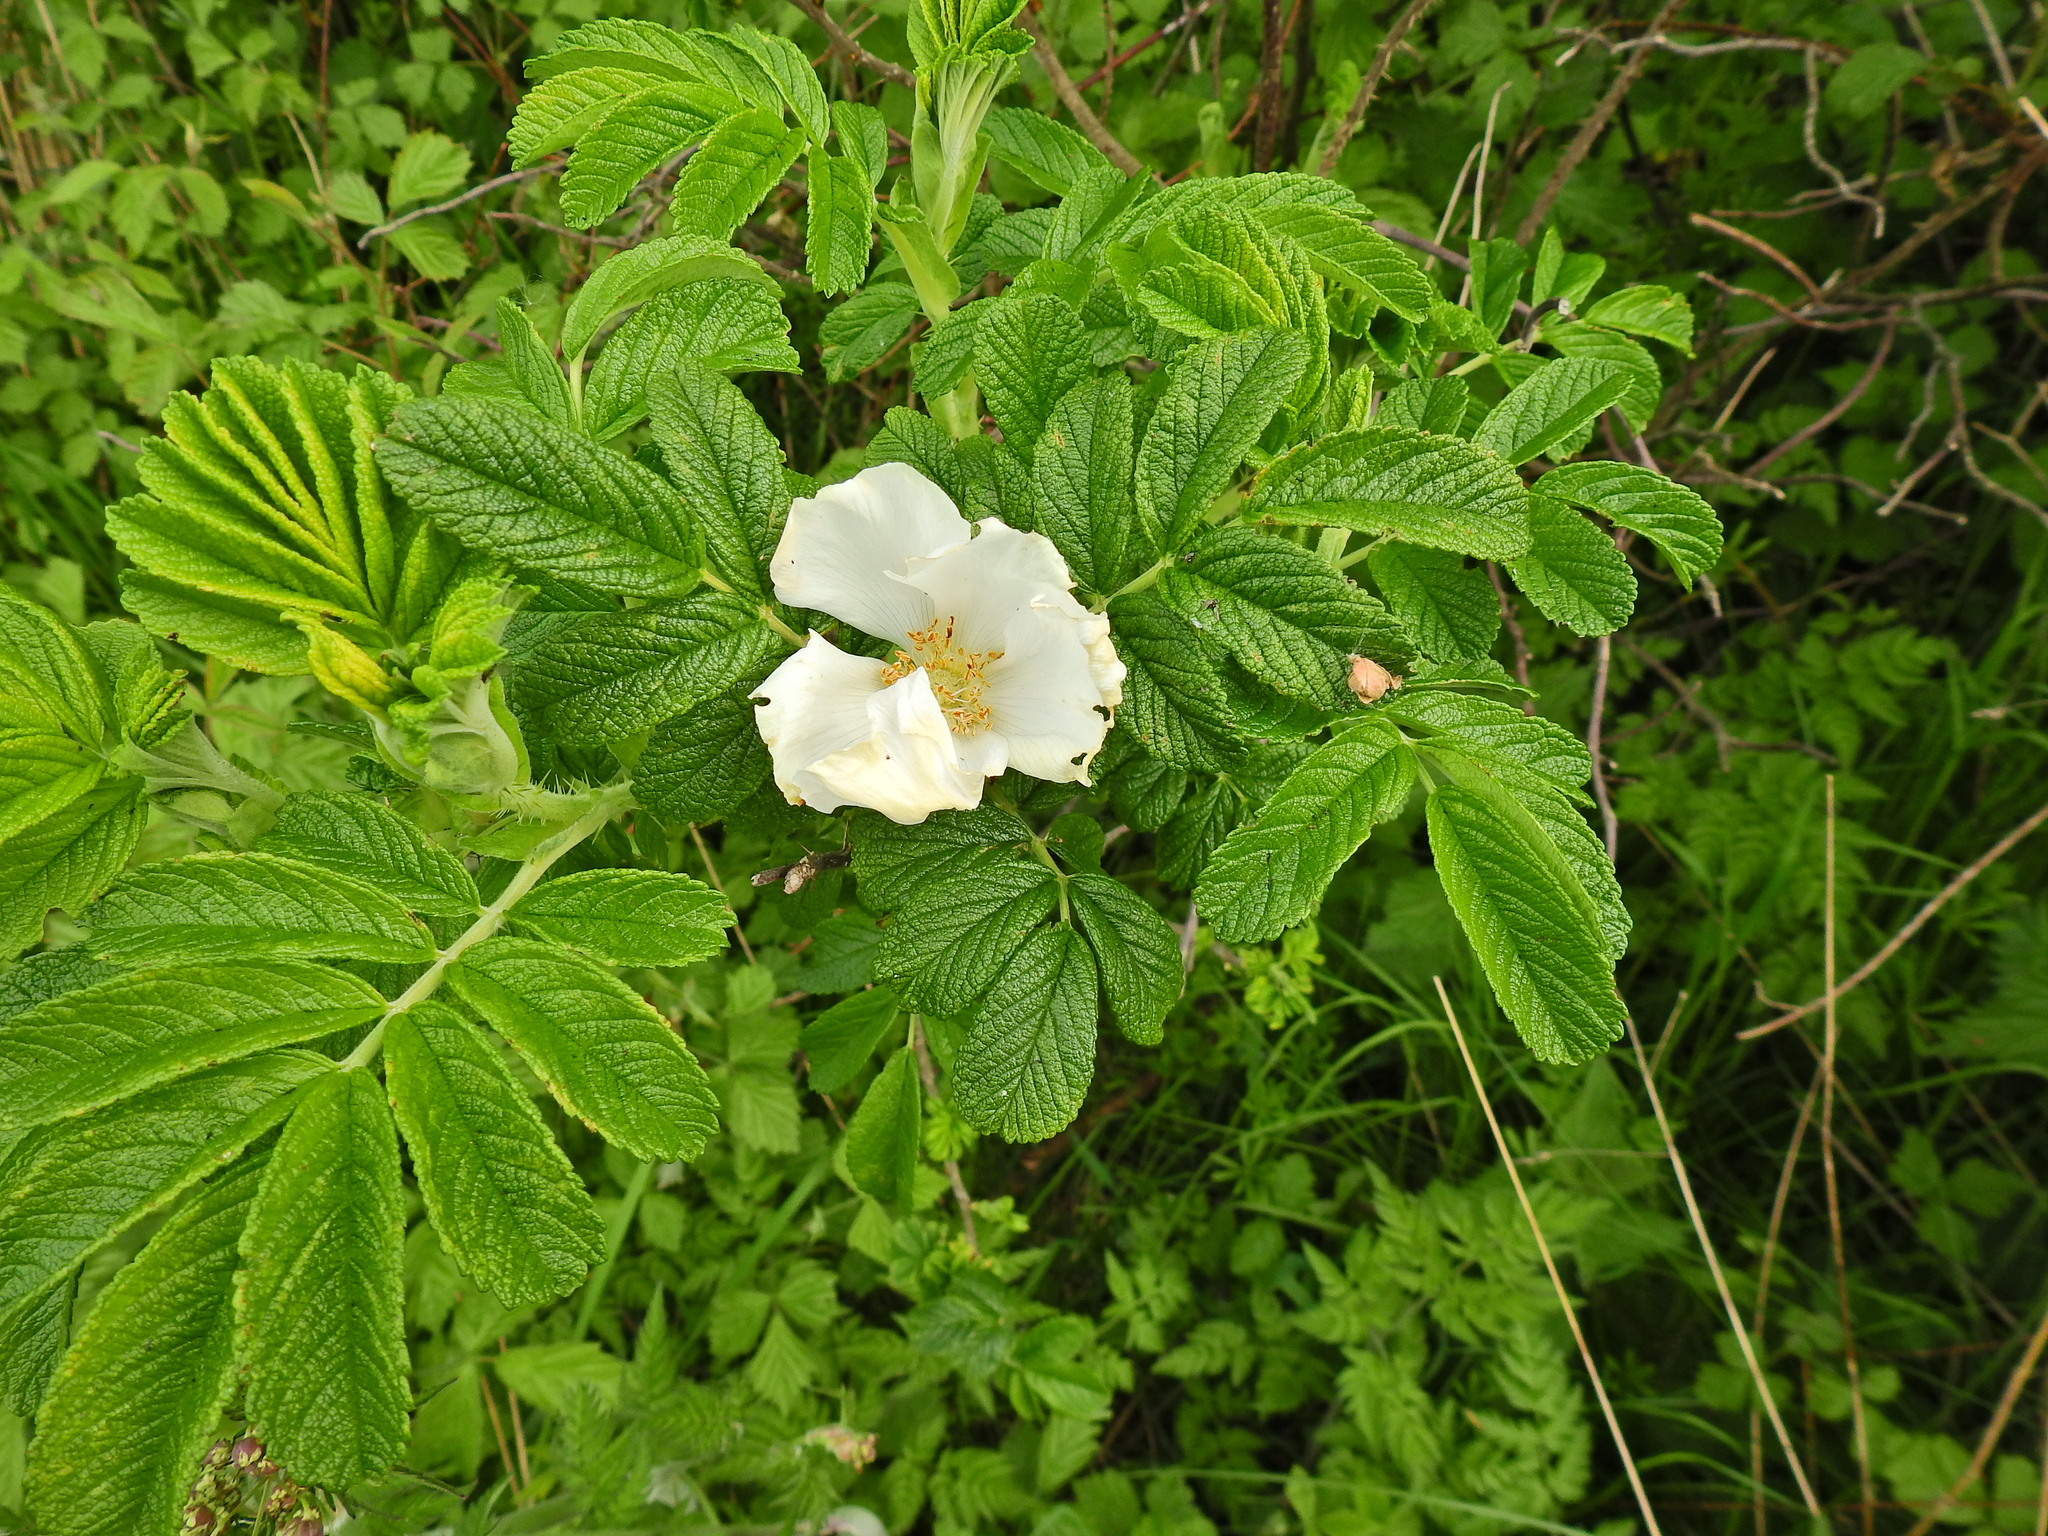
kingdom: Plantae
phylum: Tracheophyta
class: Magnoliopsida
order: Rosales
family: Rosaceae
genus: Rosa
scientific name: Rosa rugosa
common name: Japanese rose
